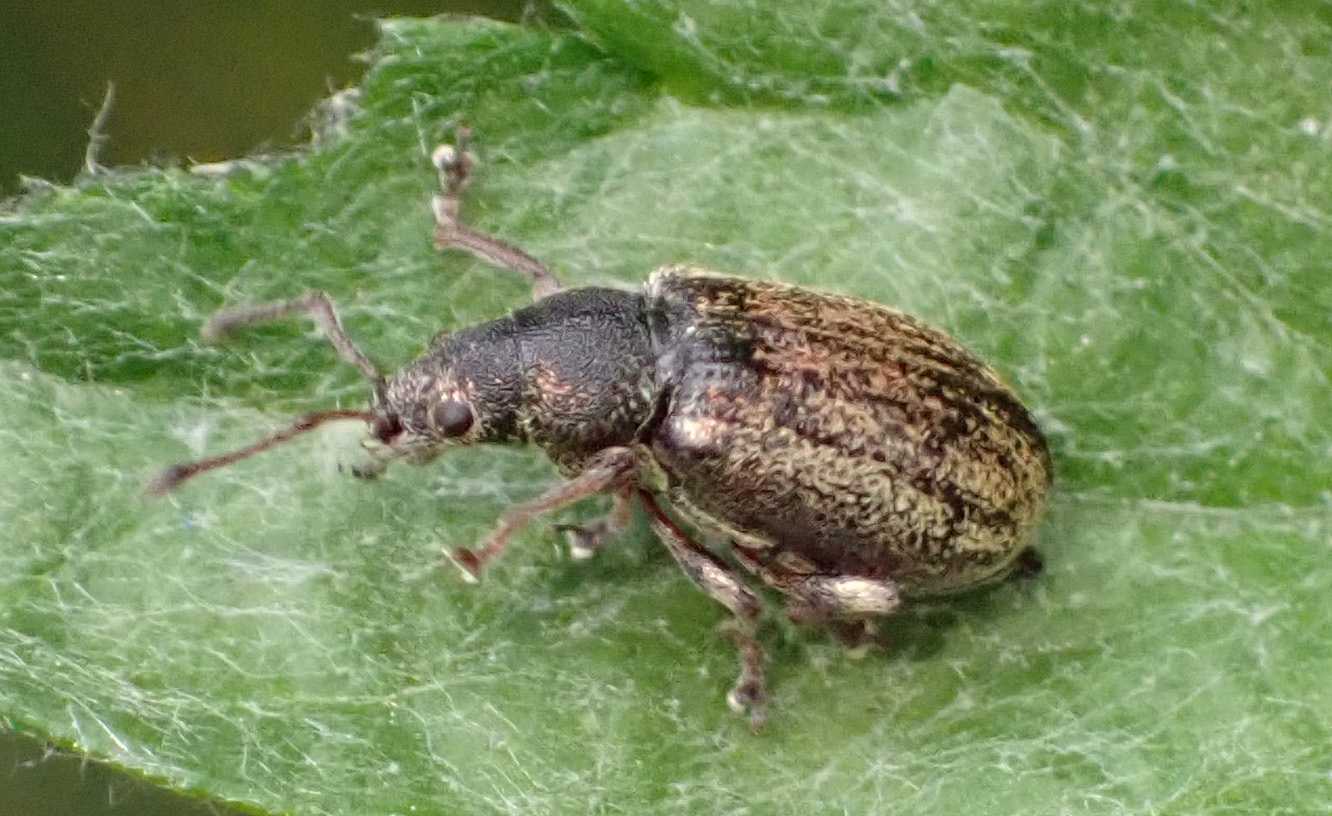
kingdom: Animalia
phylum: Arthropoda
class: Insecta
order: Coleoptera
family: Curculionidae
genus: Phyllobius
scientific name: Phyllobius pyri
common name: Common leaf weevil
